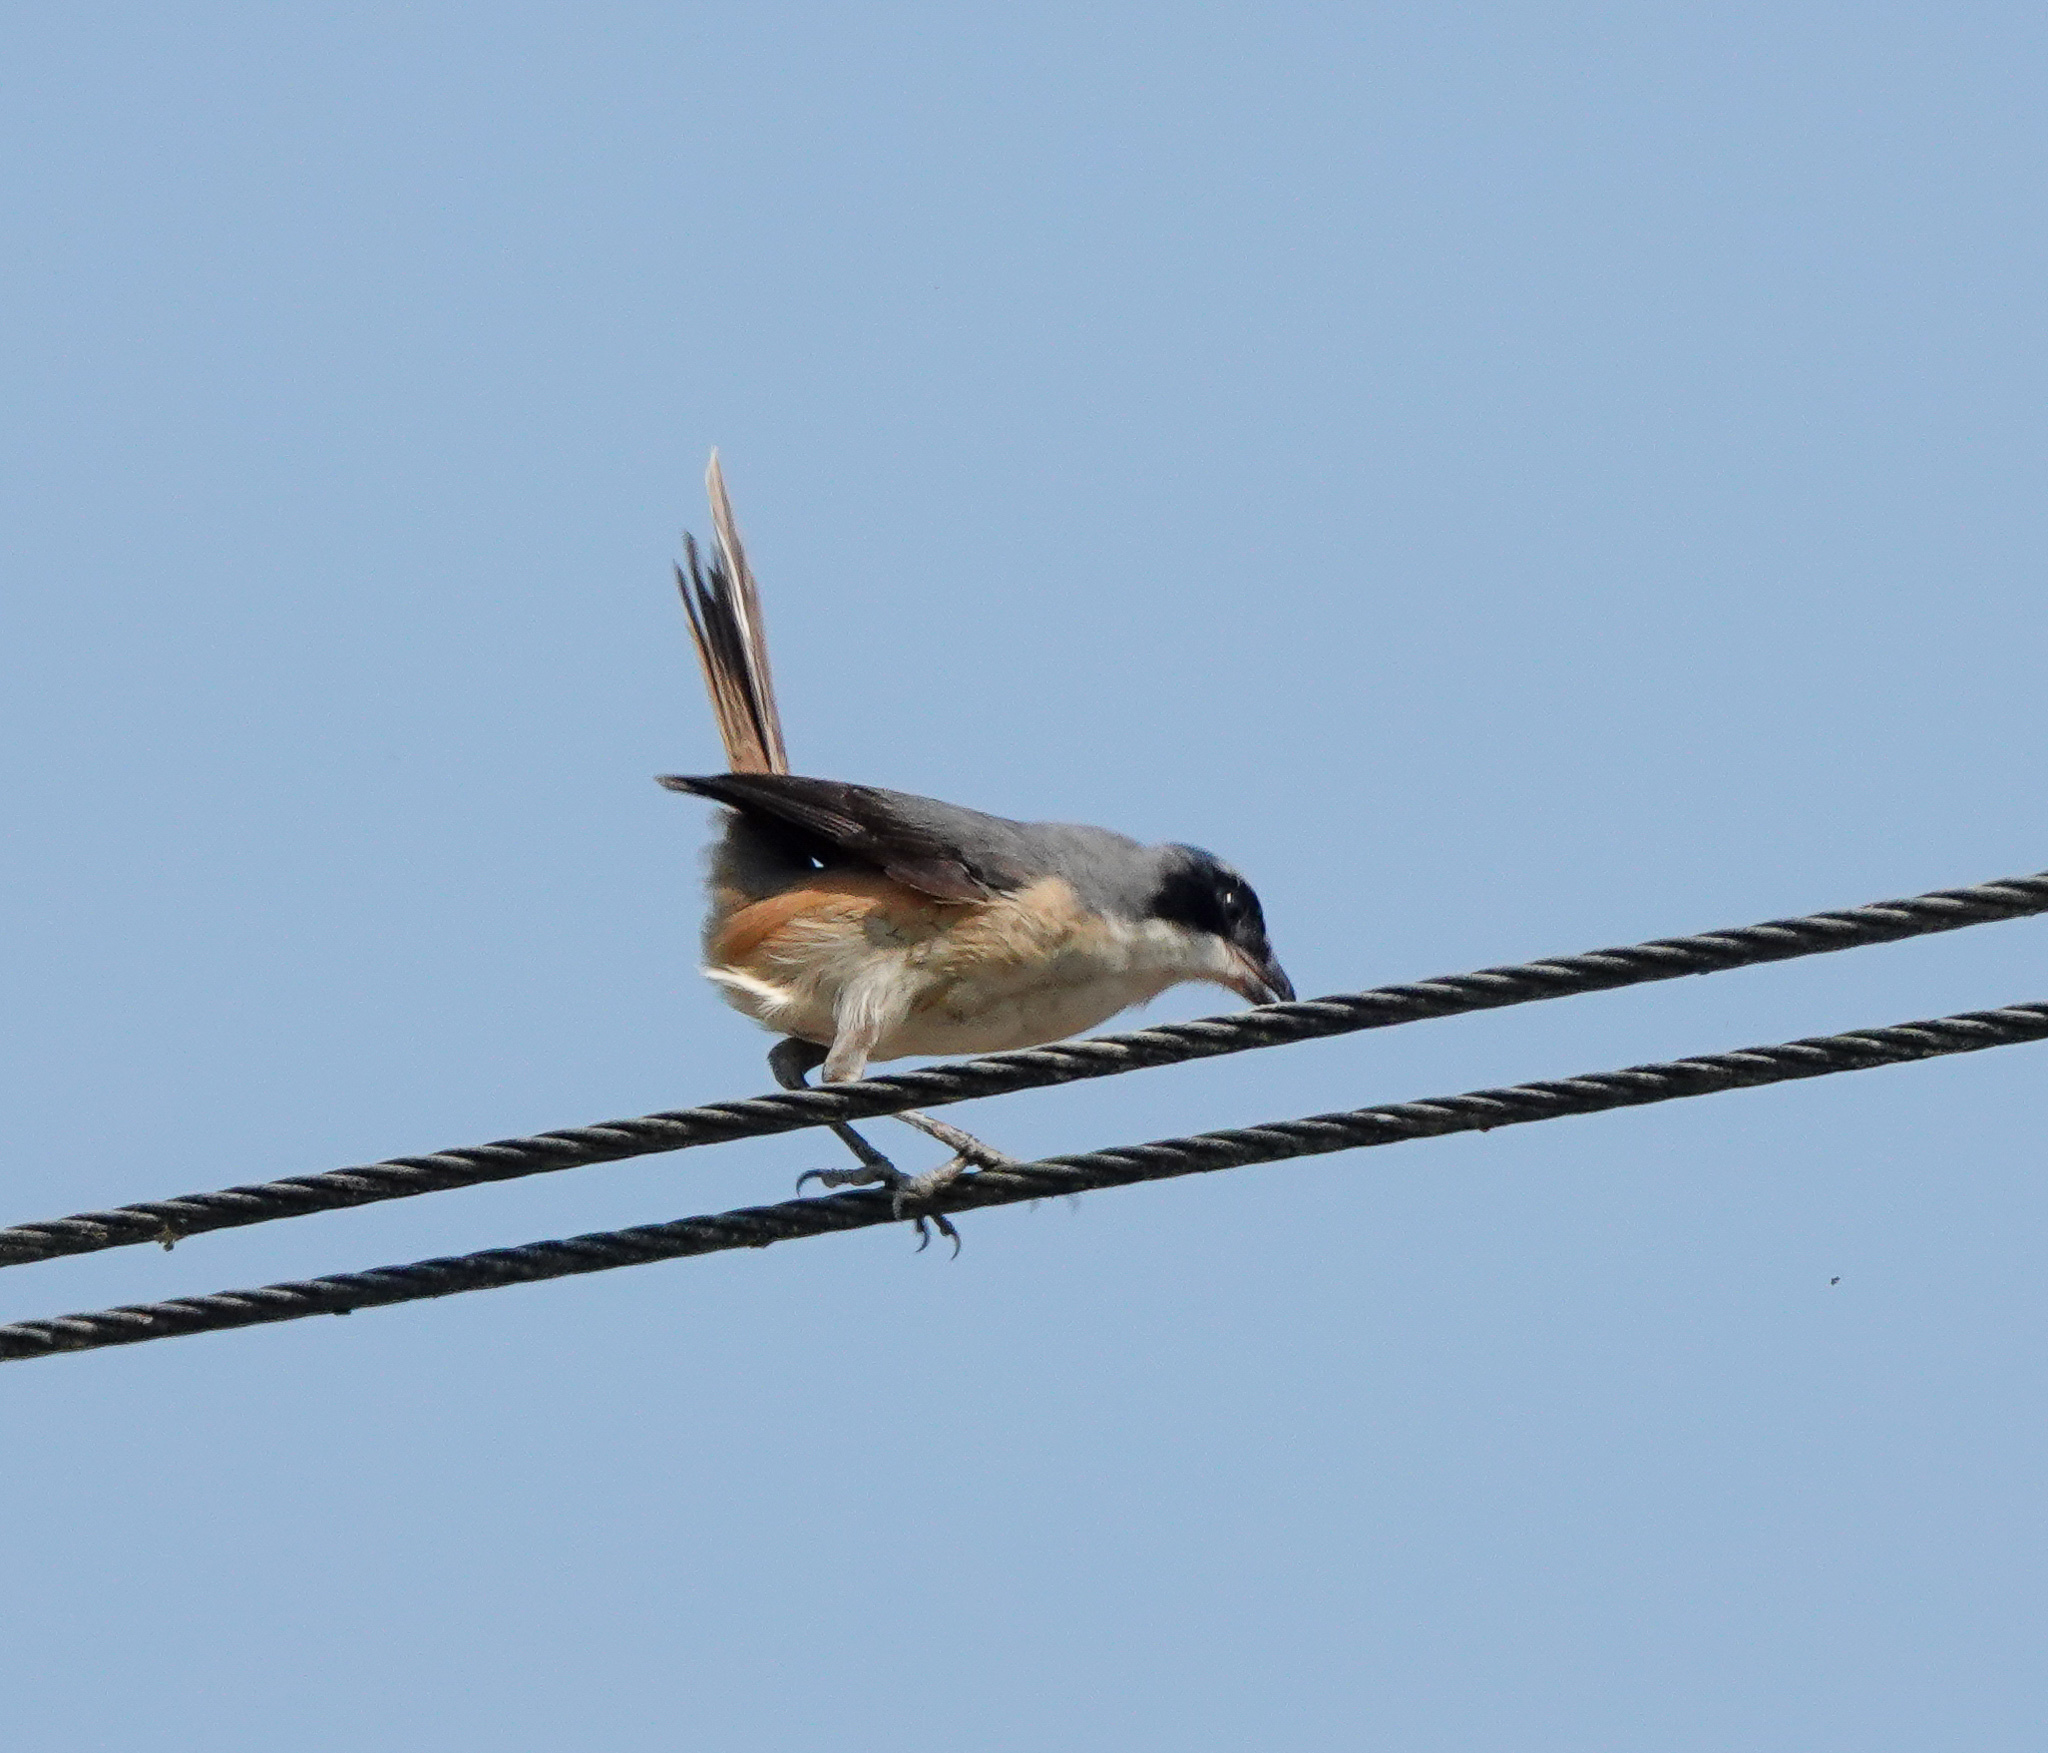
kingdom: Animalia
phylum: Chordata
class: Aves
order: Passeriformes
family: Laniidae
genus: Lanius
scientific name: Lanius tephronotus
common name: Grey-backed shrike
